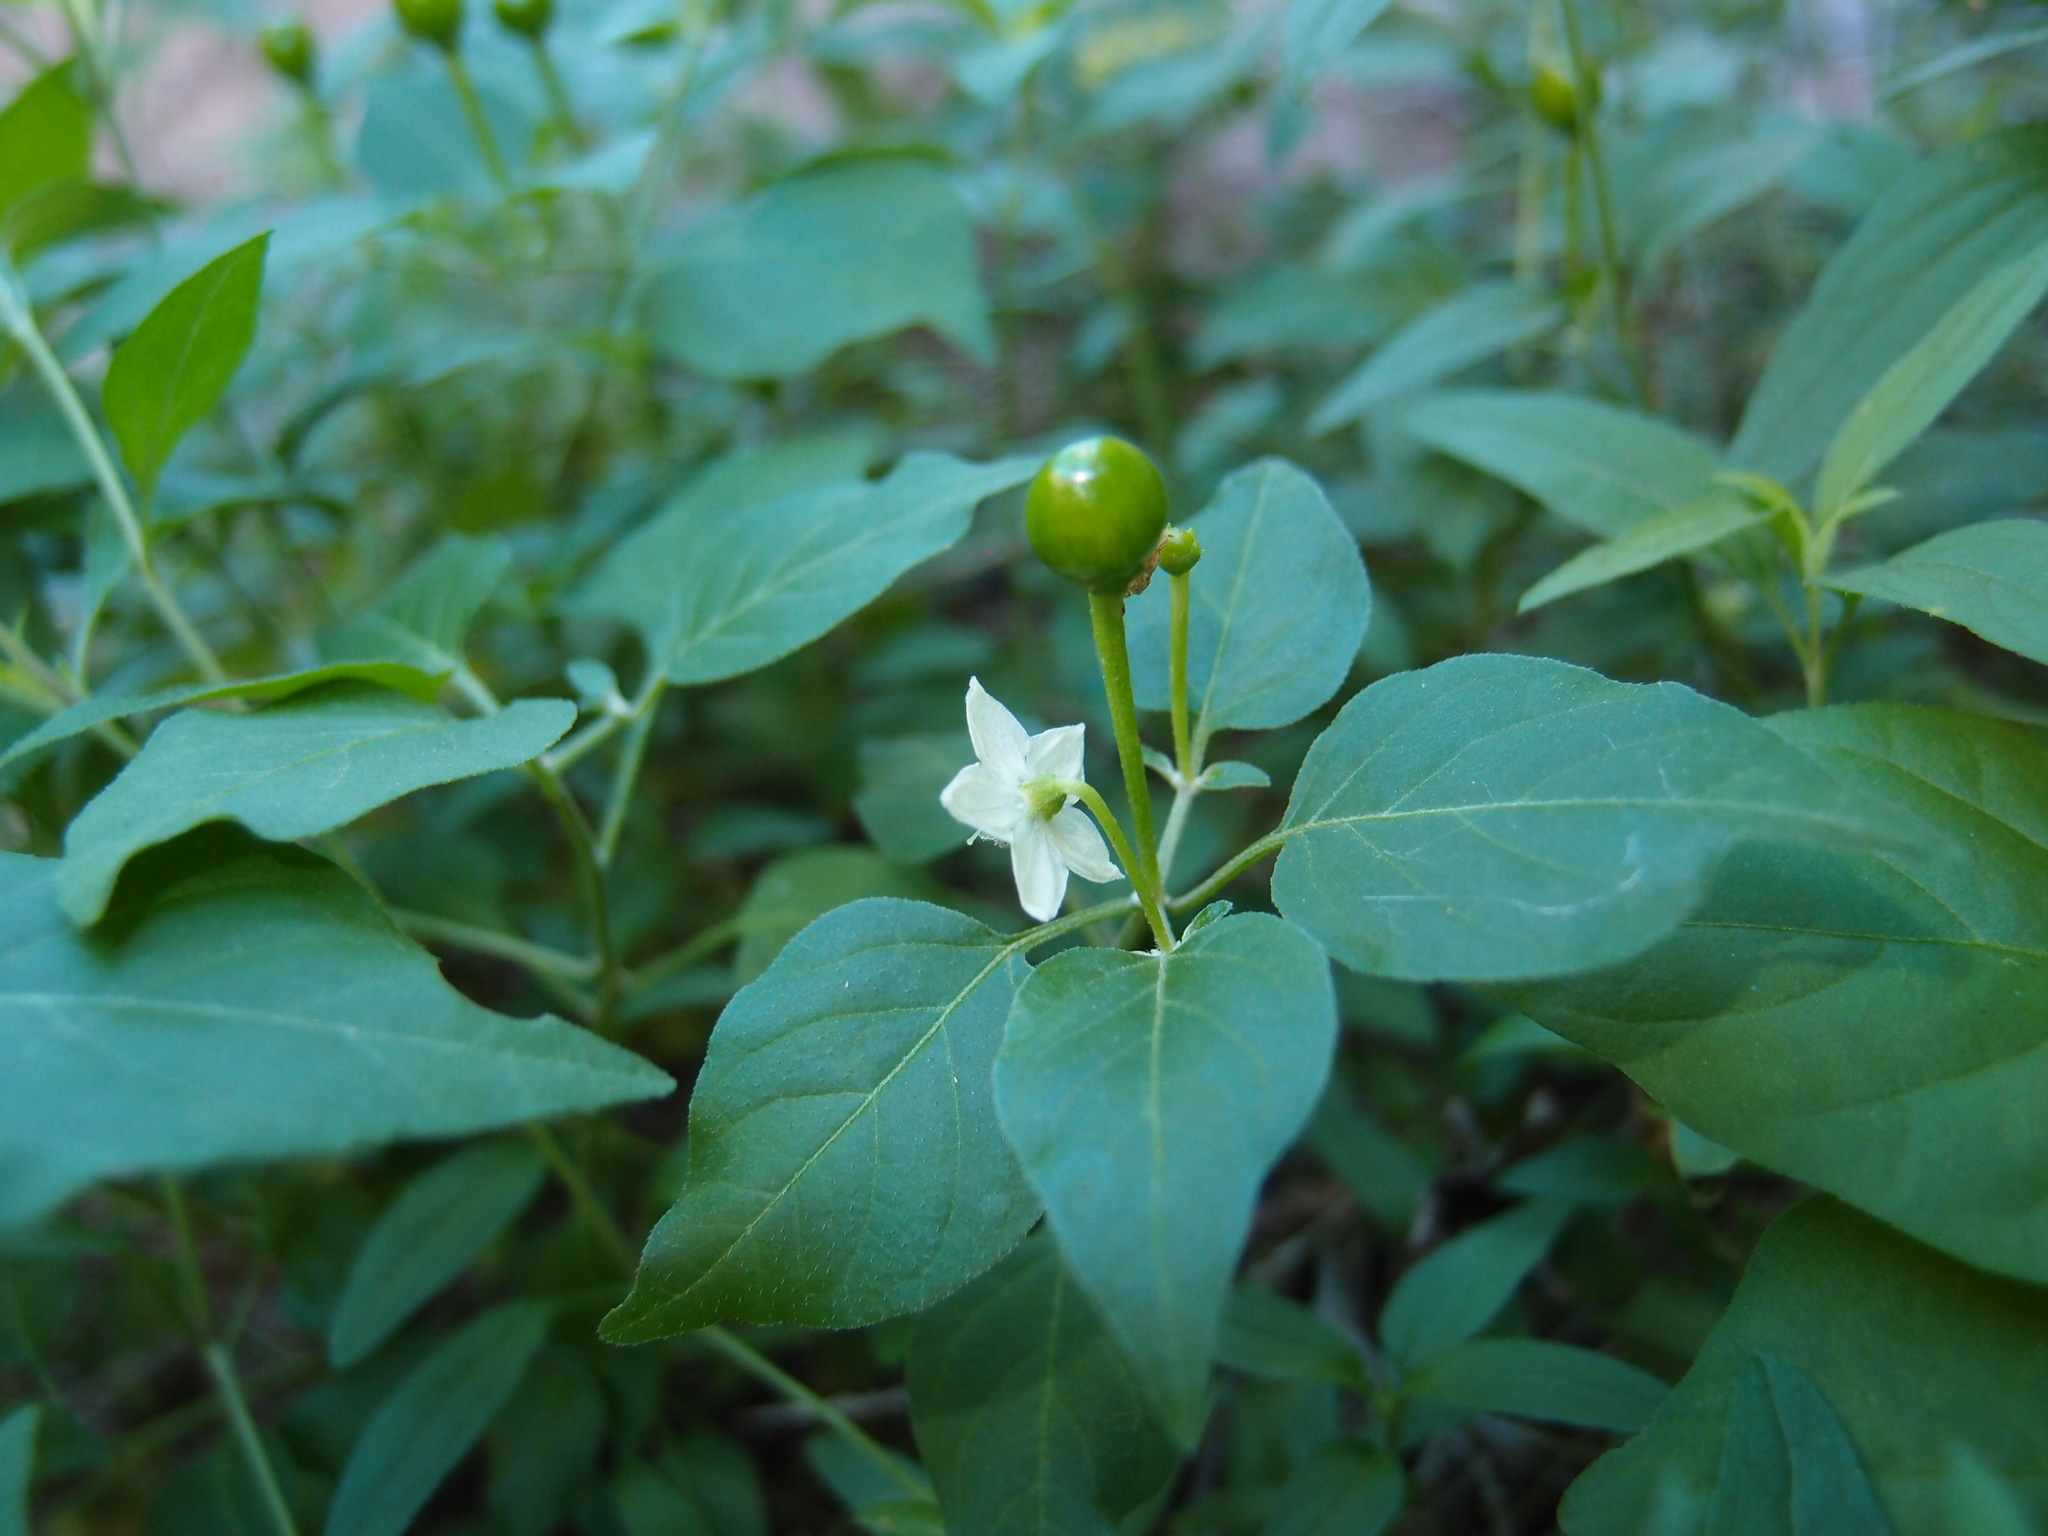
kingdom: Plantae
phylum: Tracheophyta
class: Magnoliopsida
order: Solanales
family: Solanaceae
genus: Capsicum
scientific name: Capsicum annuum
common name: Sweet pepper
